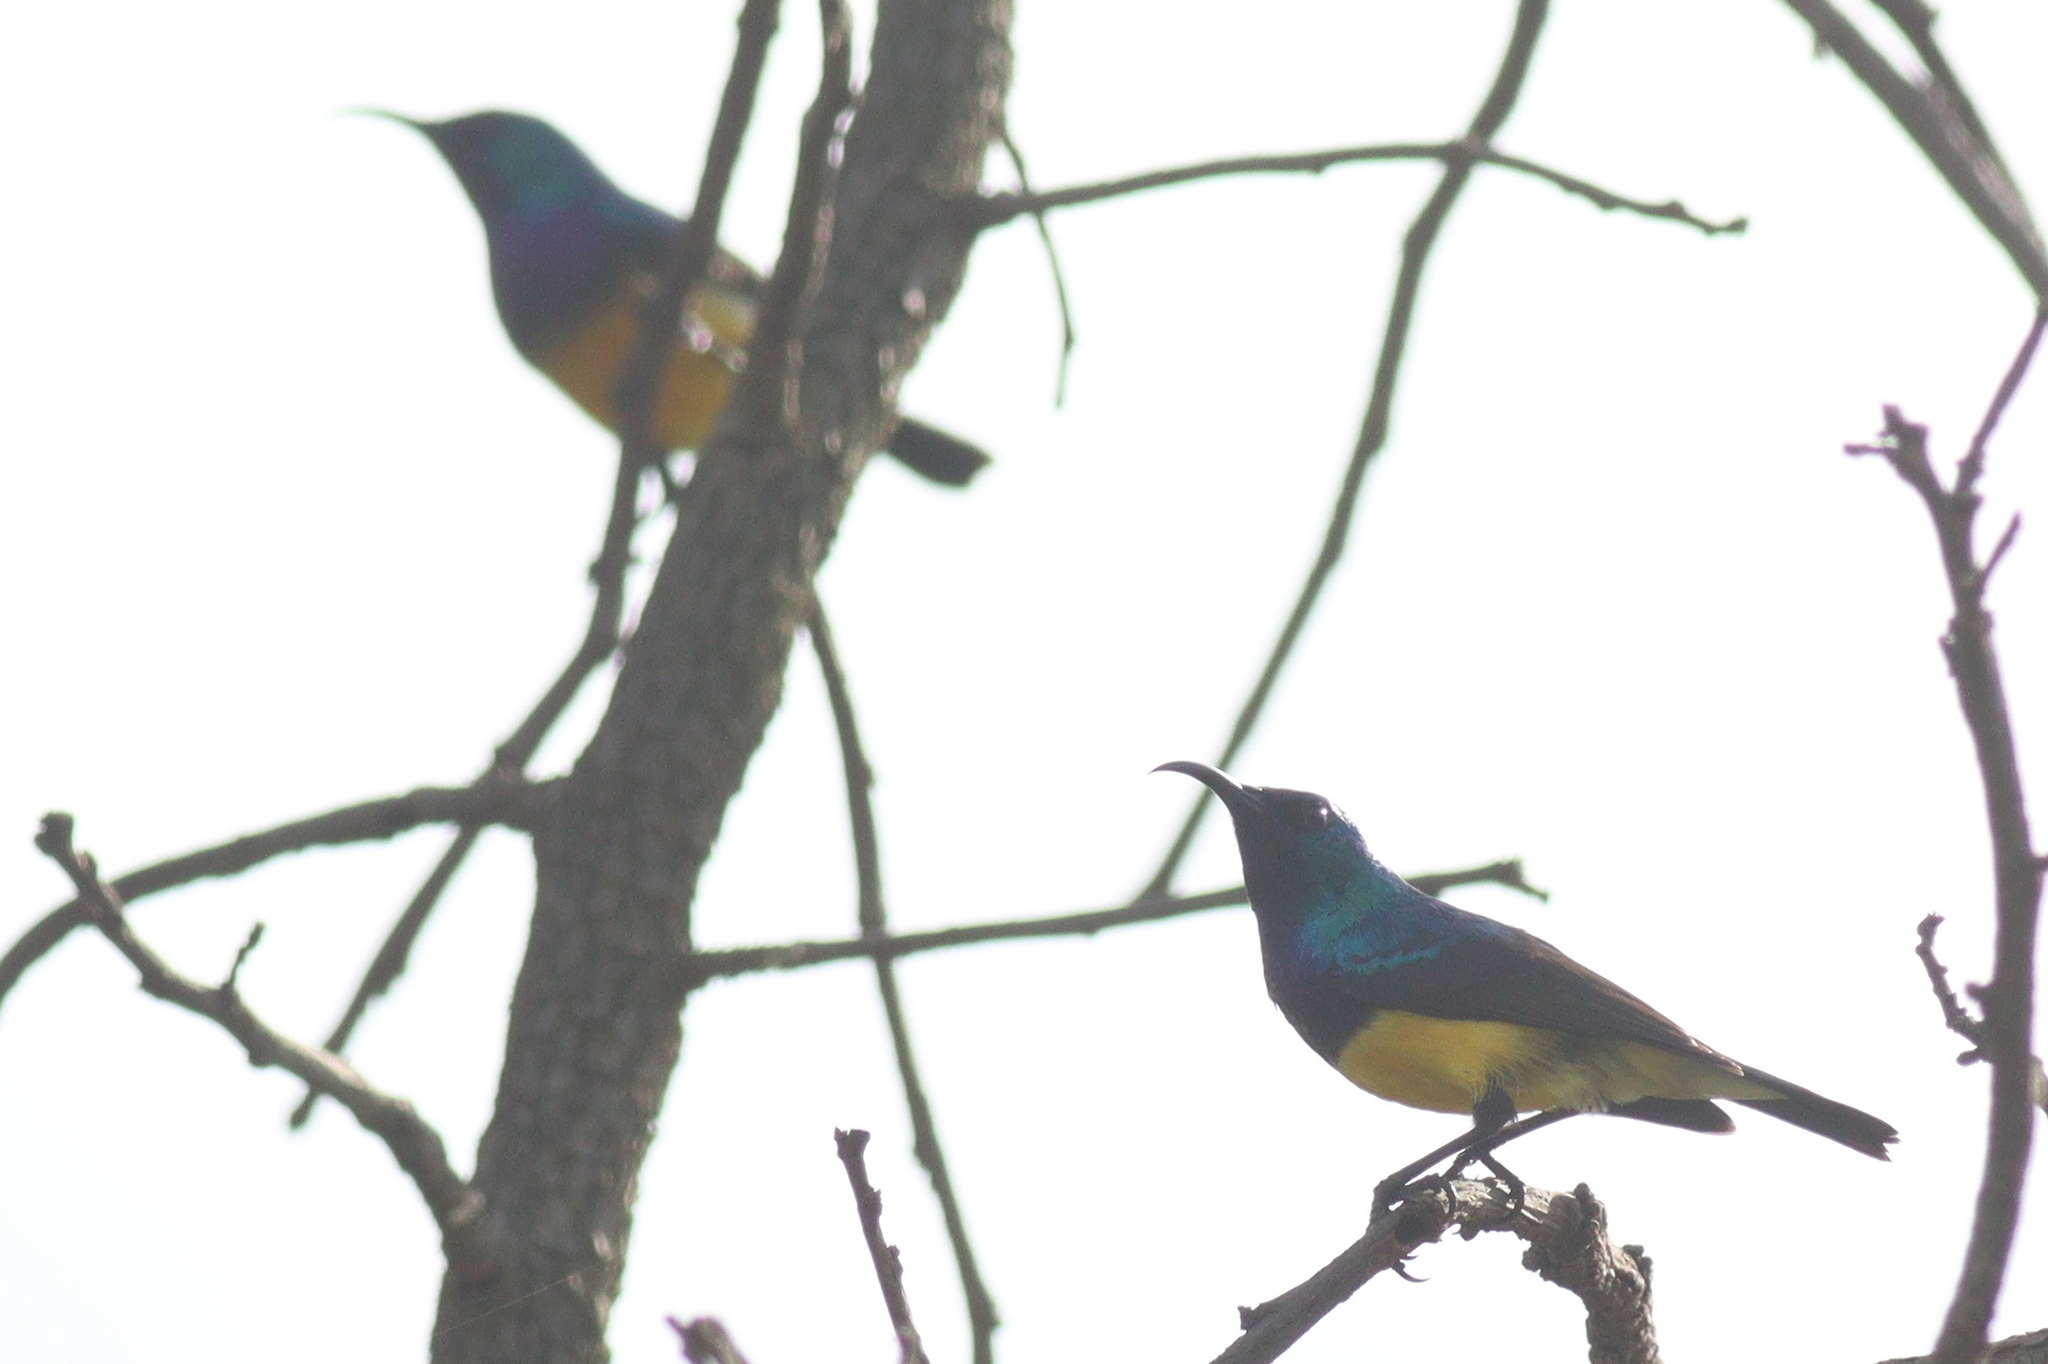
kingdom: Animalia
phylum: Chordata
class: Aves
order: Passeriformes
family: Nectariniidae
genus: Cinnyris
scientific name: Cinnyris venustus
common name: Variable sunbird
